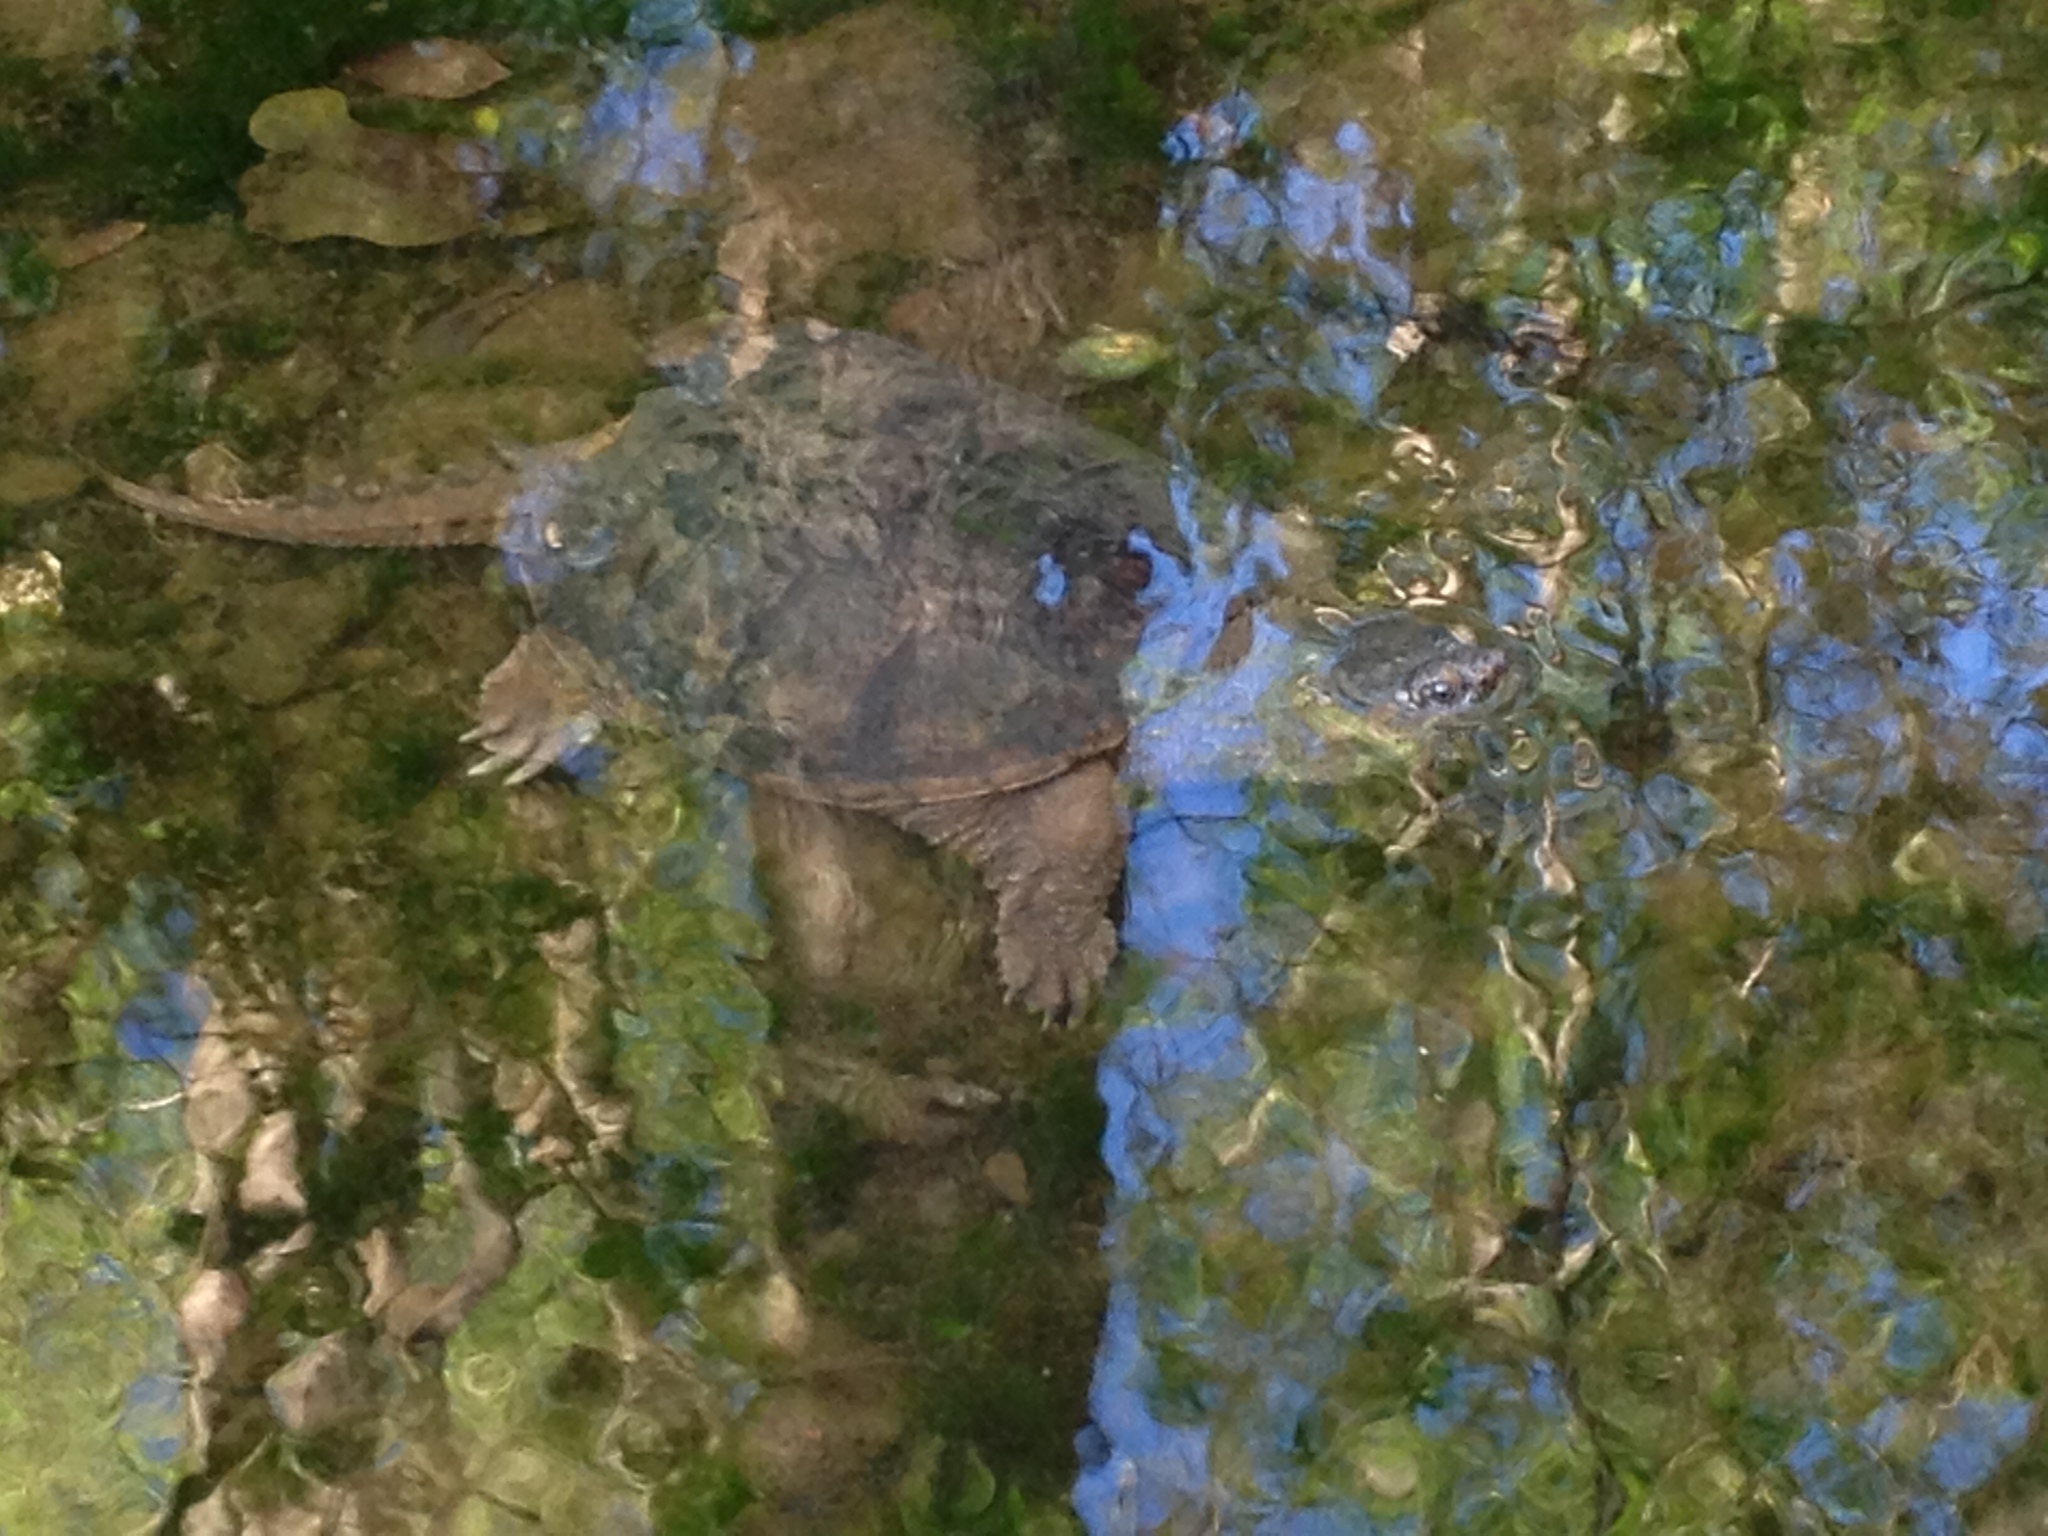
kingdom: Animalia
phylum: Chordata
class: Testudines
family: Chelydridae
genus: Chelydra
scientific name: Chelydra serpentina
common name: Common snapping turtle
